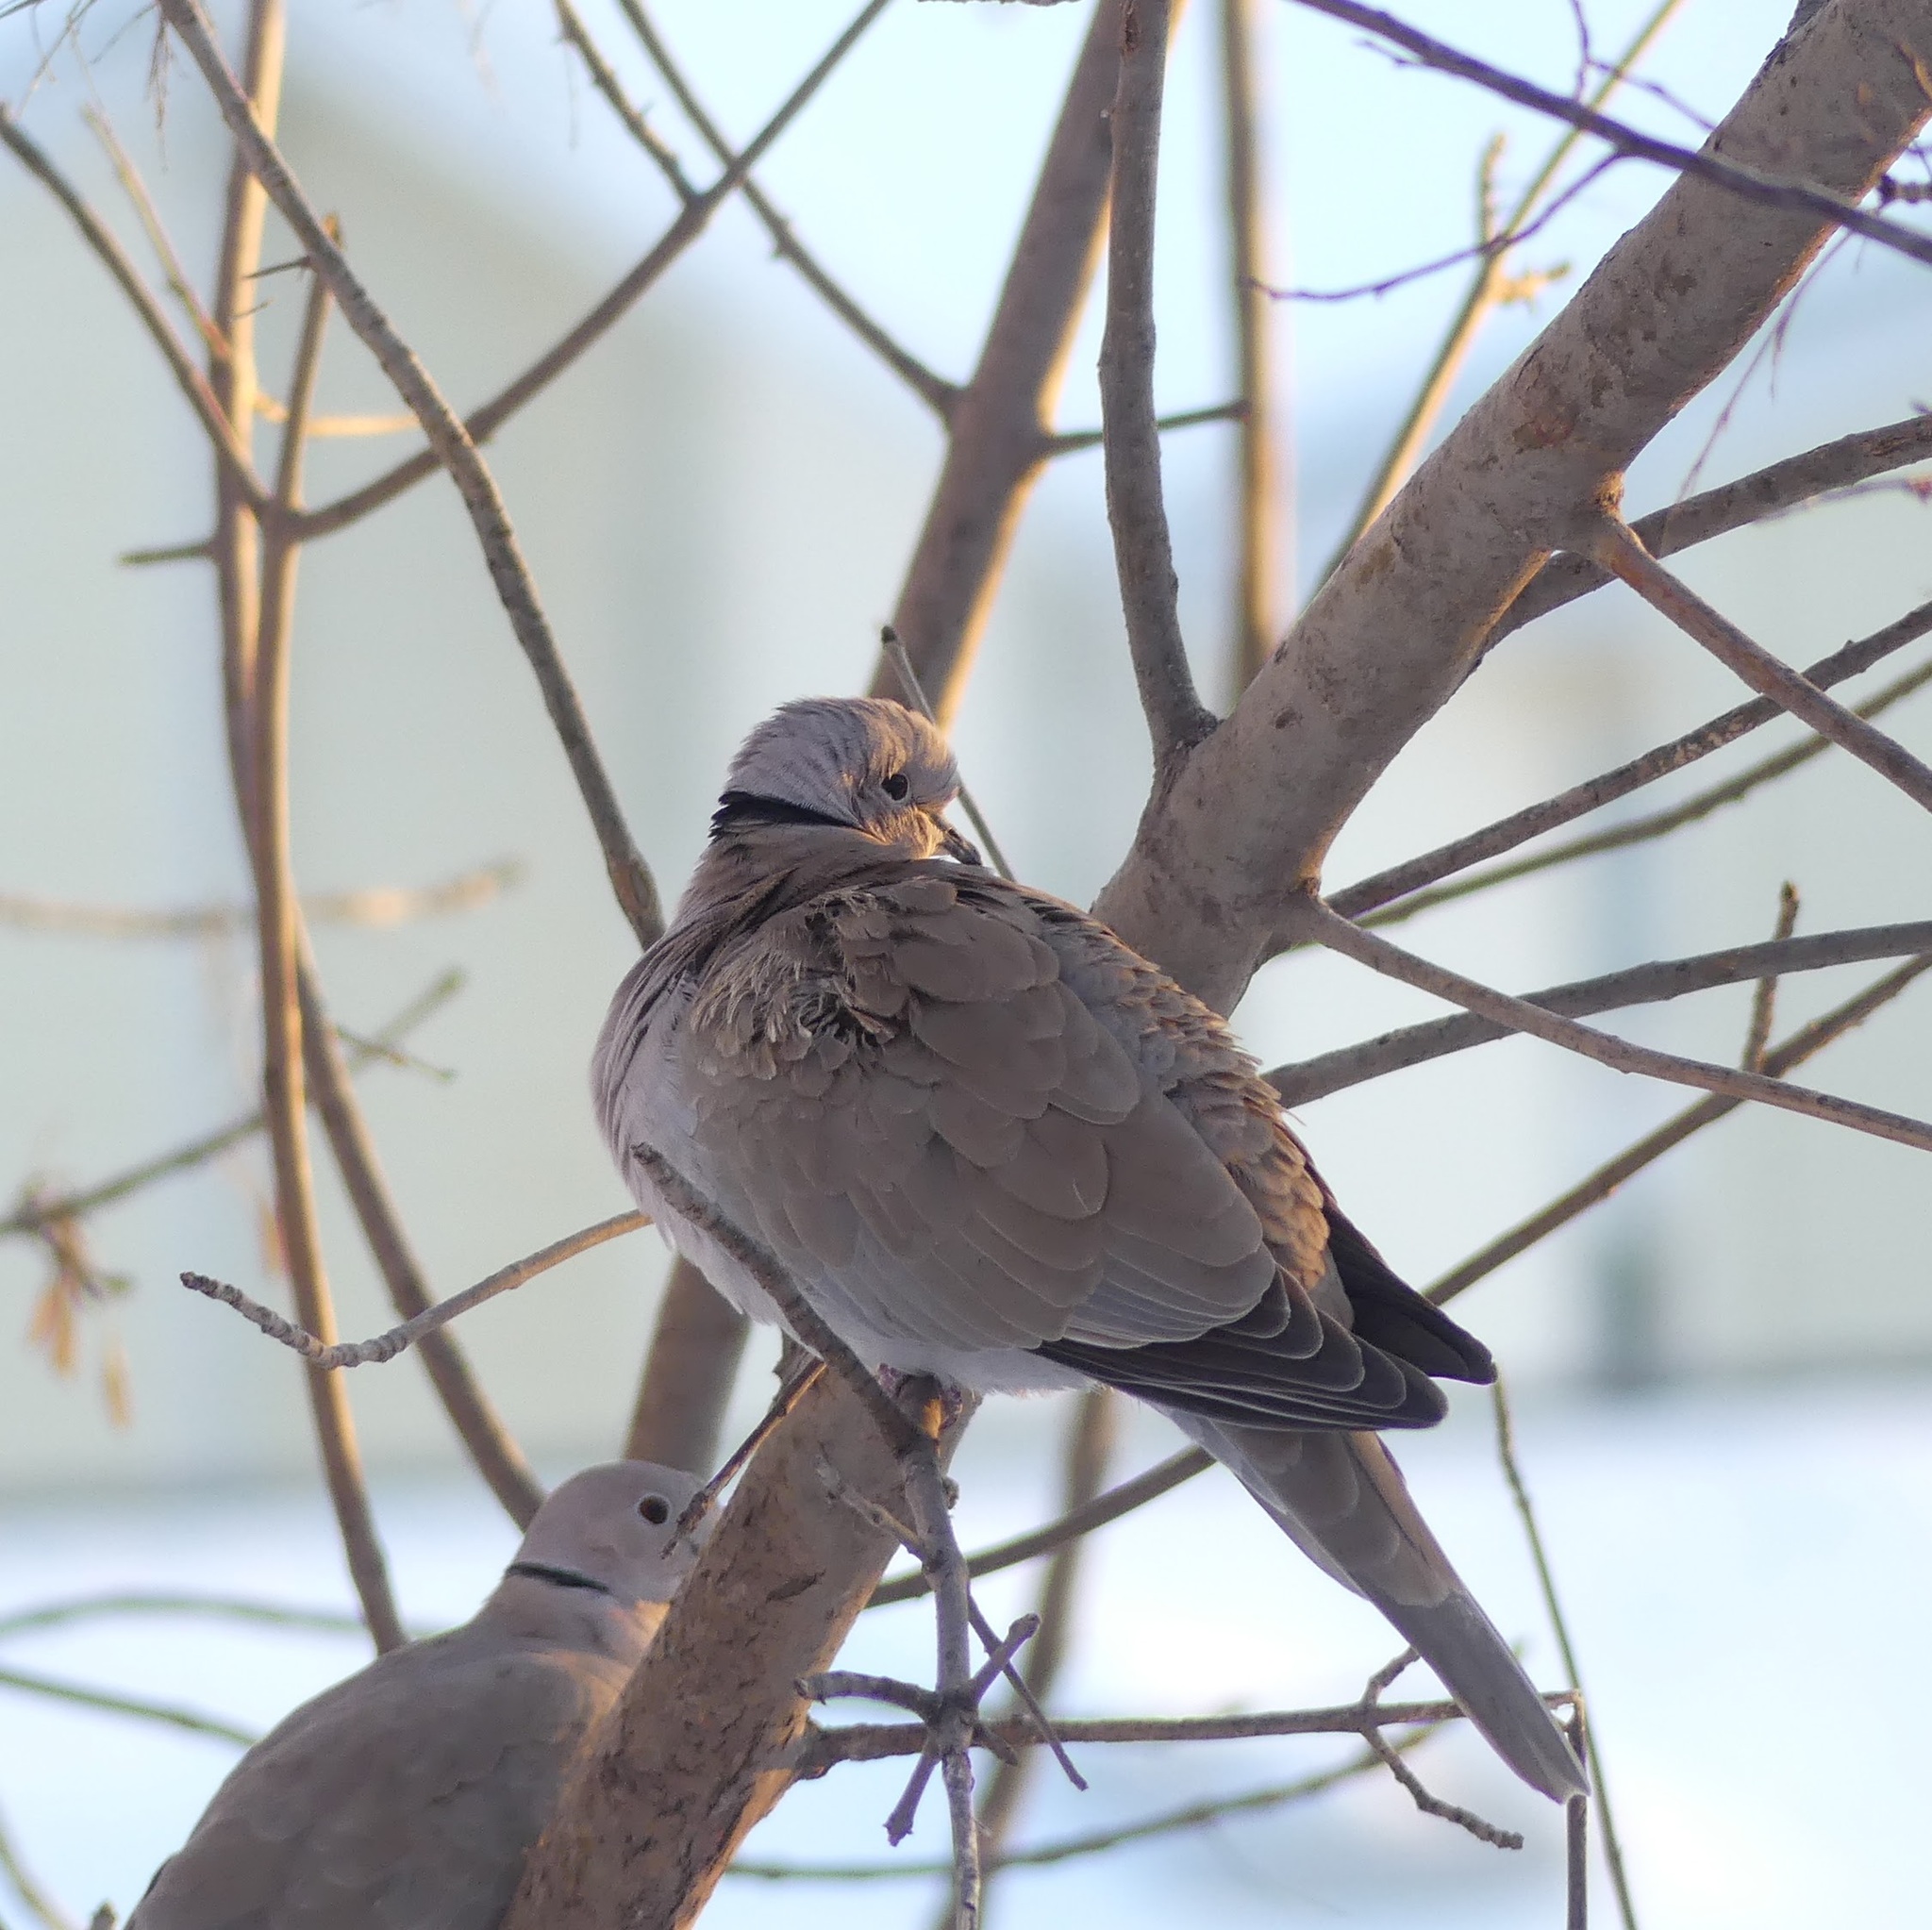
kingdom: Animalia
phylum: Chordata
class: Aves
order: Columbiformes
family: Columbidae
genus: Streptopelia
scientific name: Streptopelia decaocto
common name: Eurasian collared dove
